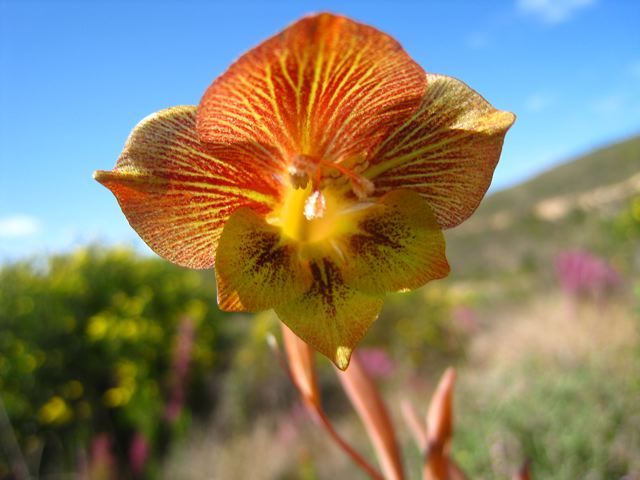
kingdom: Plantae
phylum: Tracheophyta
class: Liliopsida
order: Asparagales
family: Iridaceae
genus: Gladiolus
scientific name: Gladiolus fourcadei
